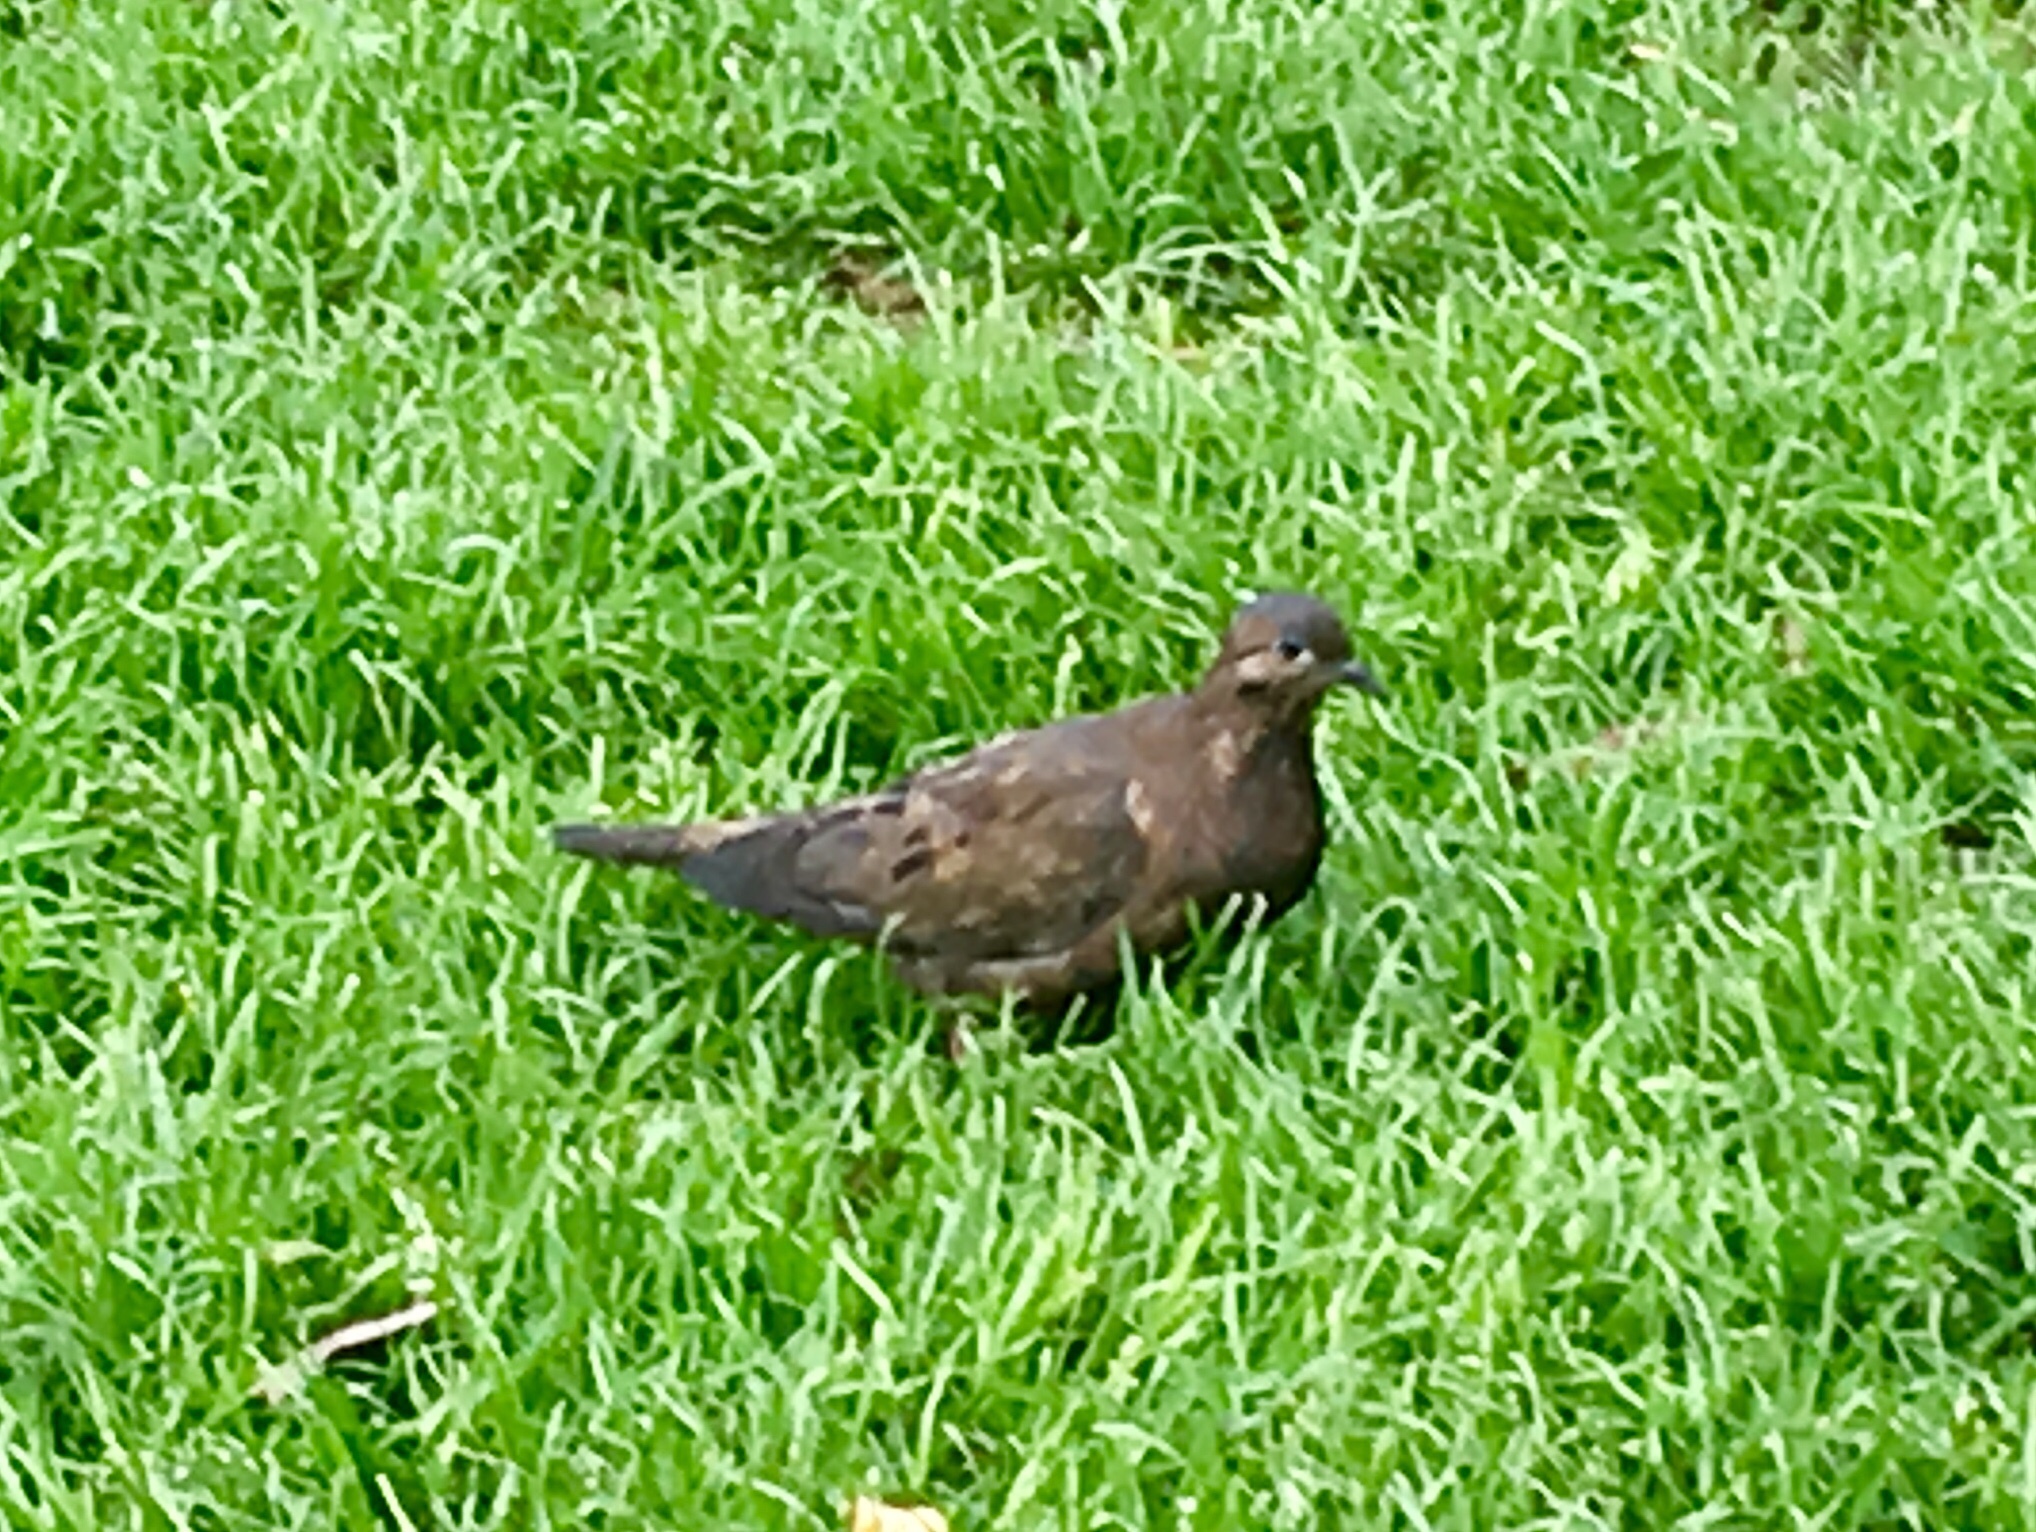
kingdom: Animalia
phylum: Chordata
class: Aves
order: Columbiformes
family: Columbidae
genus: Zenaida
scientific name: Zenaida auriculata
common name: Eared dove
